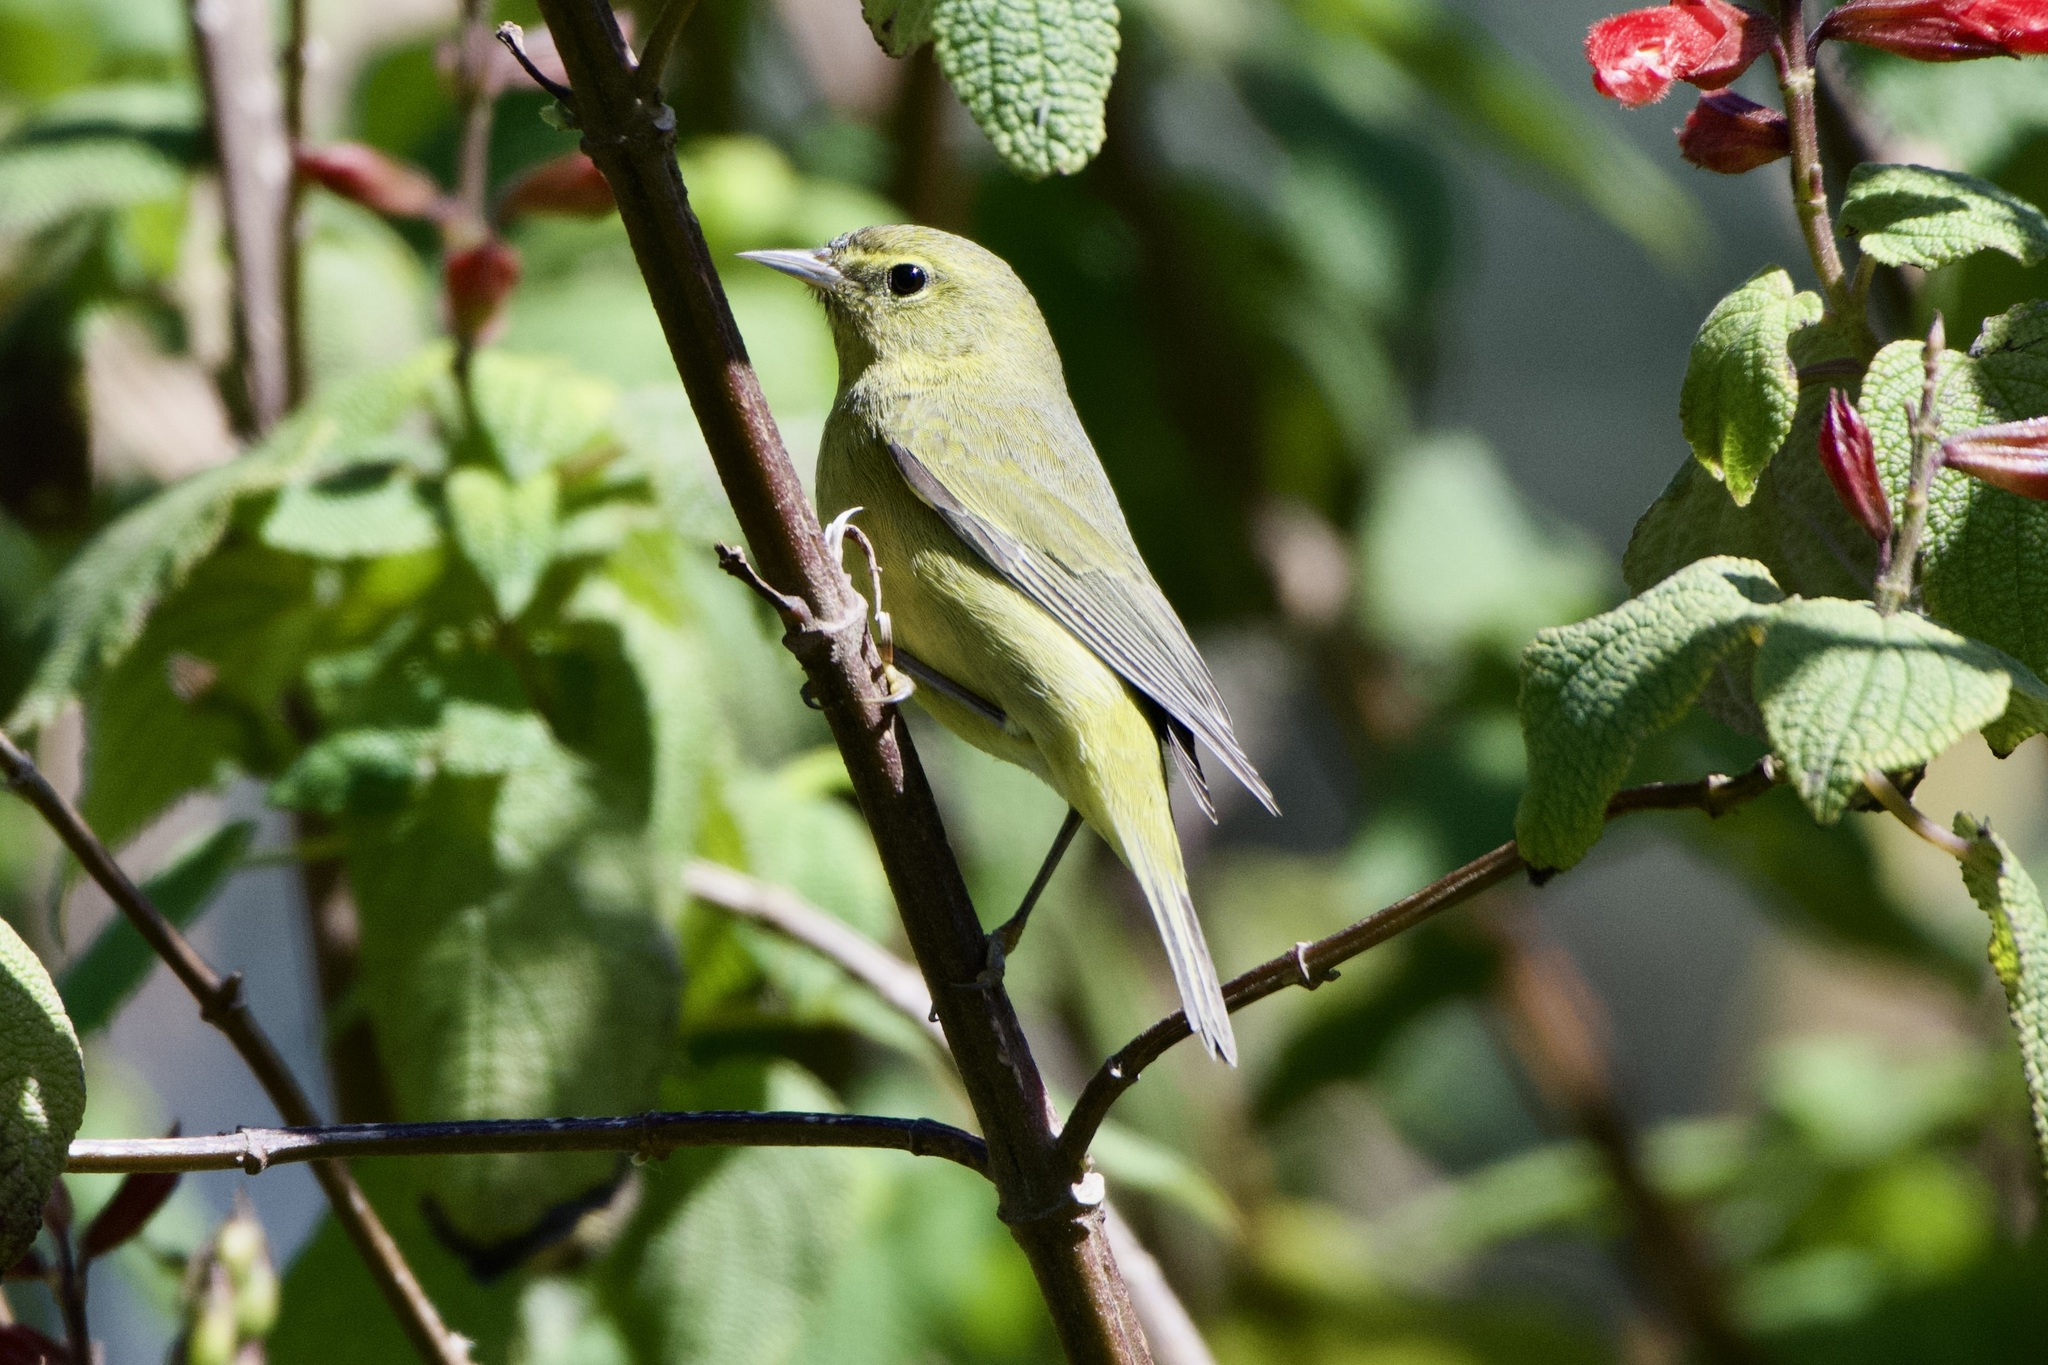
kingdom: Animalia
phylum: Chordata
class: Aves
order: Passeriformes
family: Parulidae
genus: Leiothlypis
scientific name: Leiothlypis celata
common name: Orange-crowned warbler
